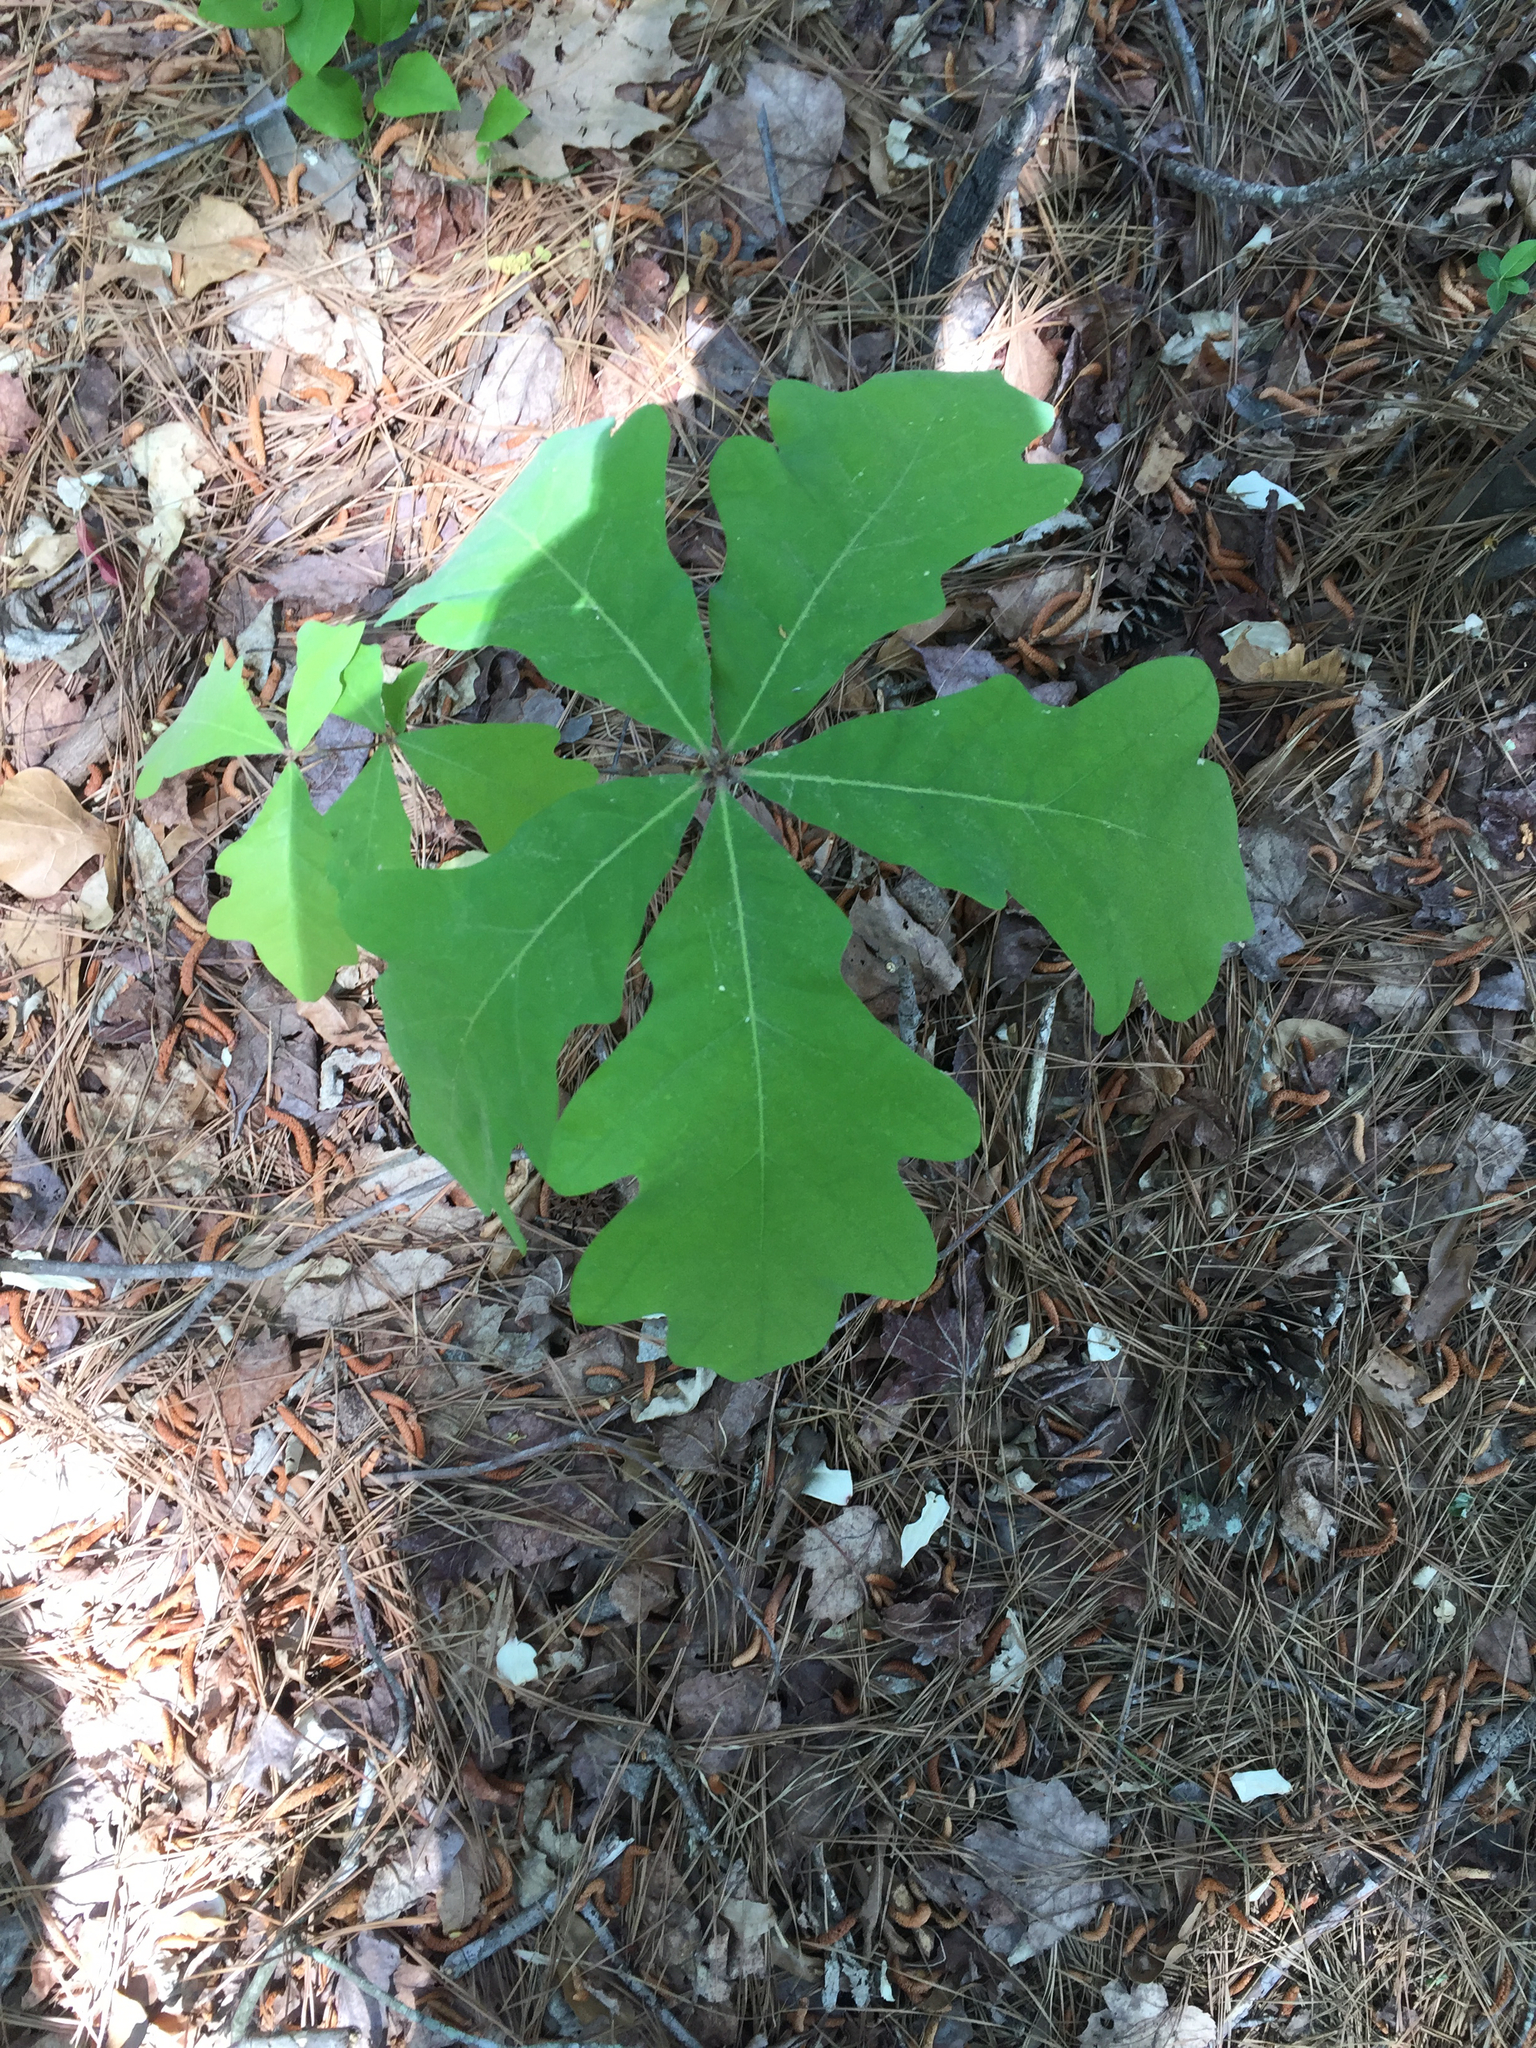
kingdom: Plantae
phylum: Tracheophyta
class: Magnoliopsida
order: Fagales
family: Fagaceae
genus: Quercus
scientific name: Quercus alba
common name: White oak
